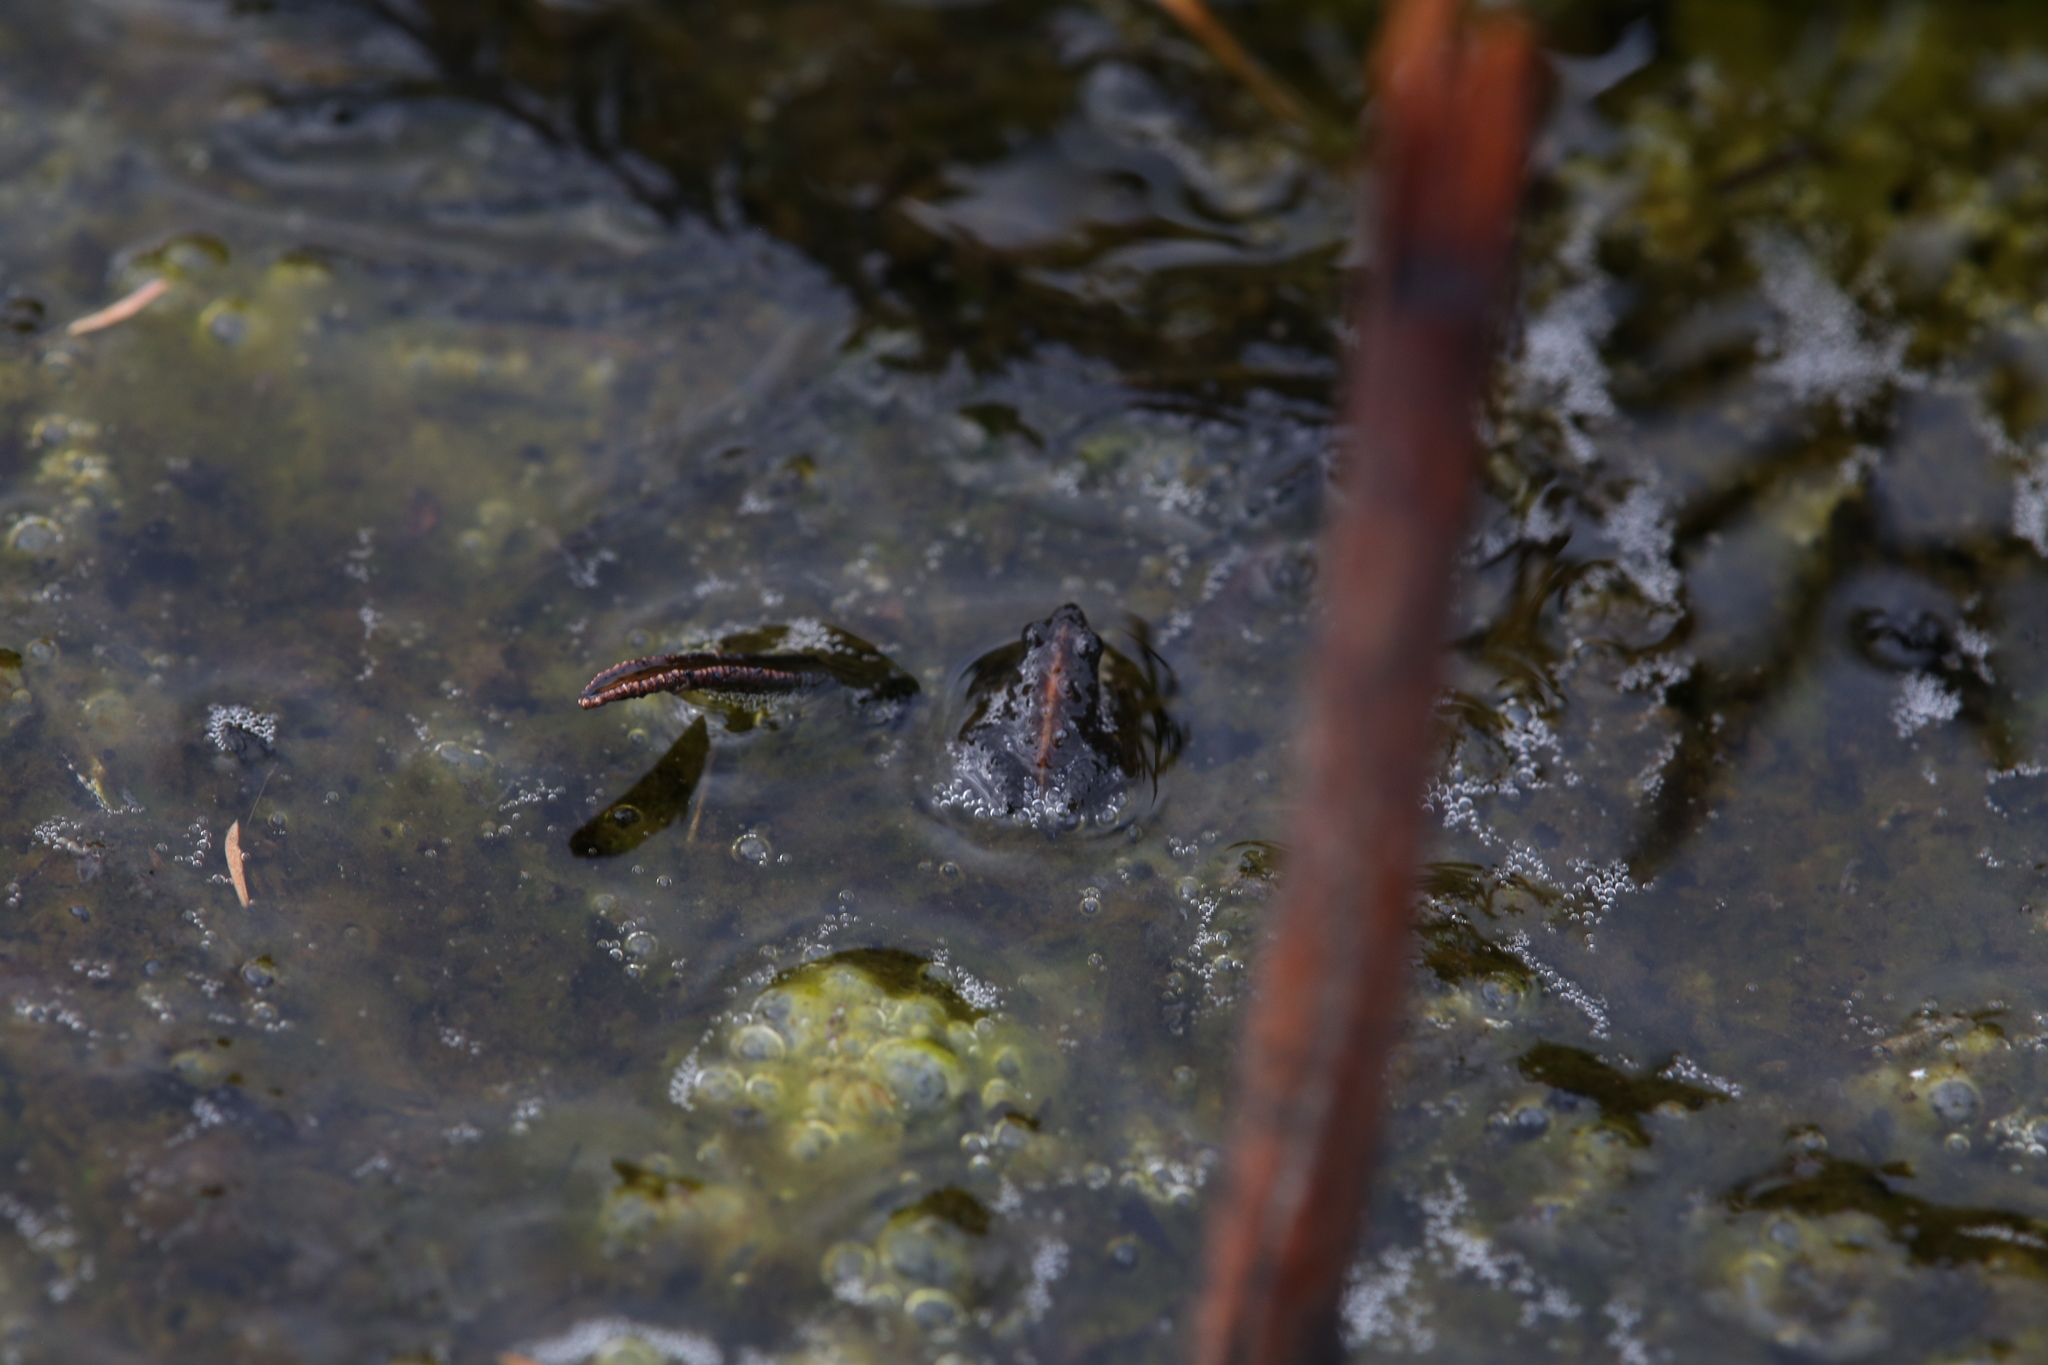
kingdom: Animalia
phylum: Chordata
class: Amphibia
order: Anura
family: Myobatrachidae
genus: Crinia
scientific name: Crinia glauerti
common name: Glauert’s froglet
